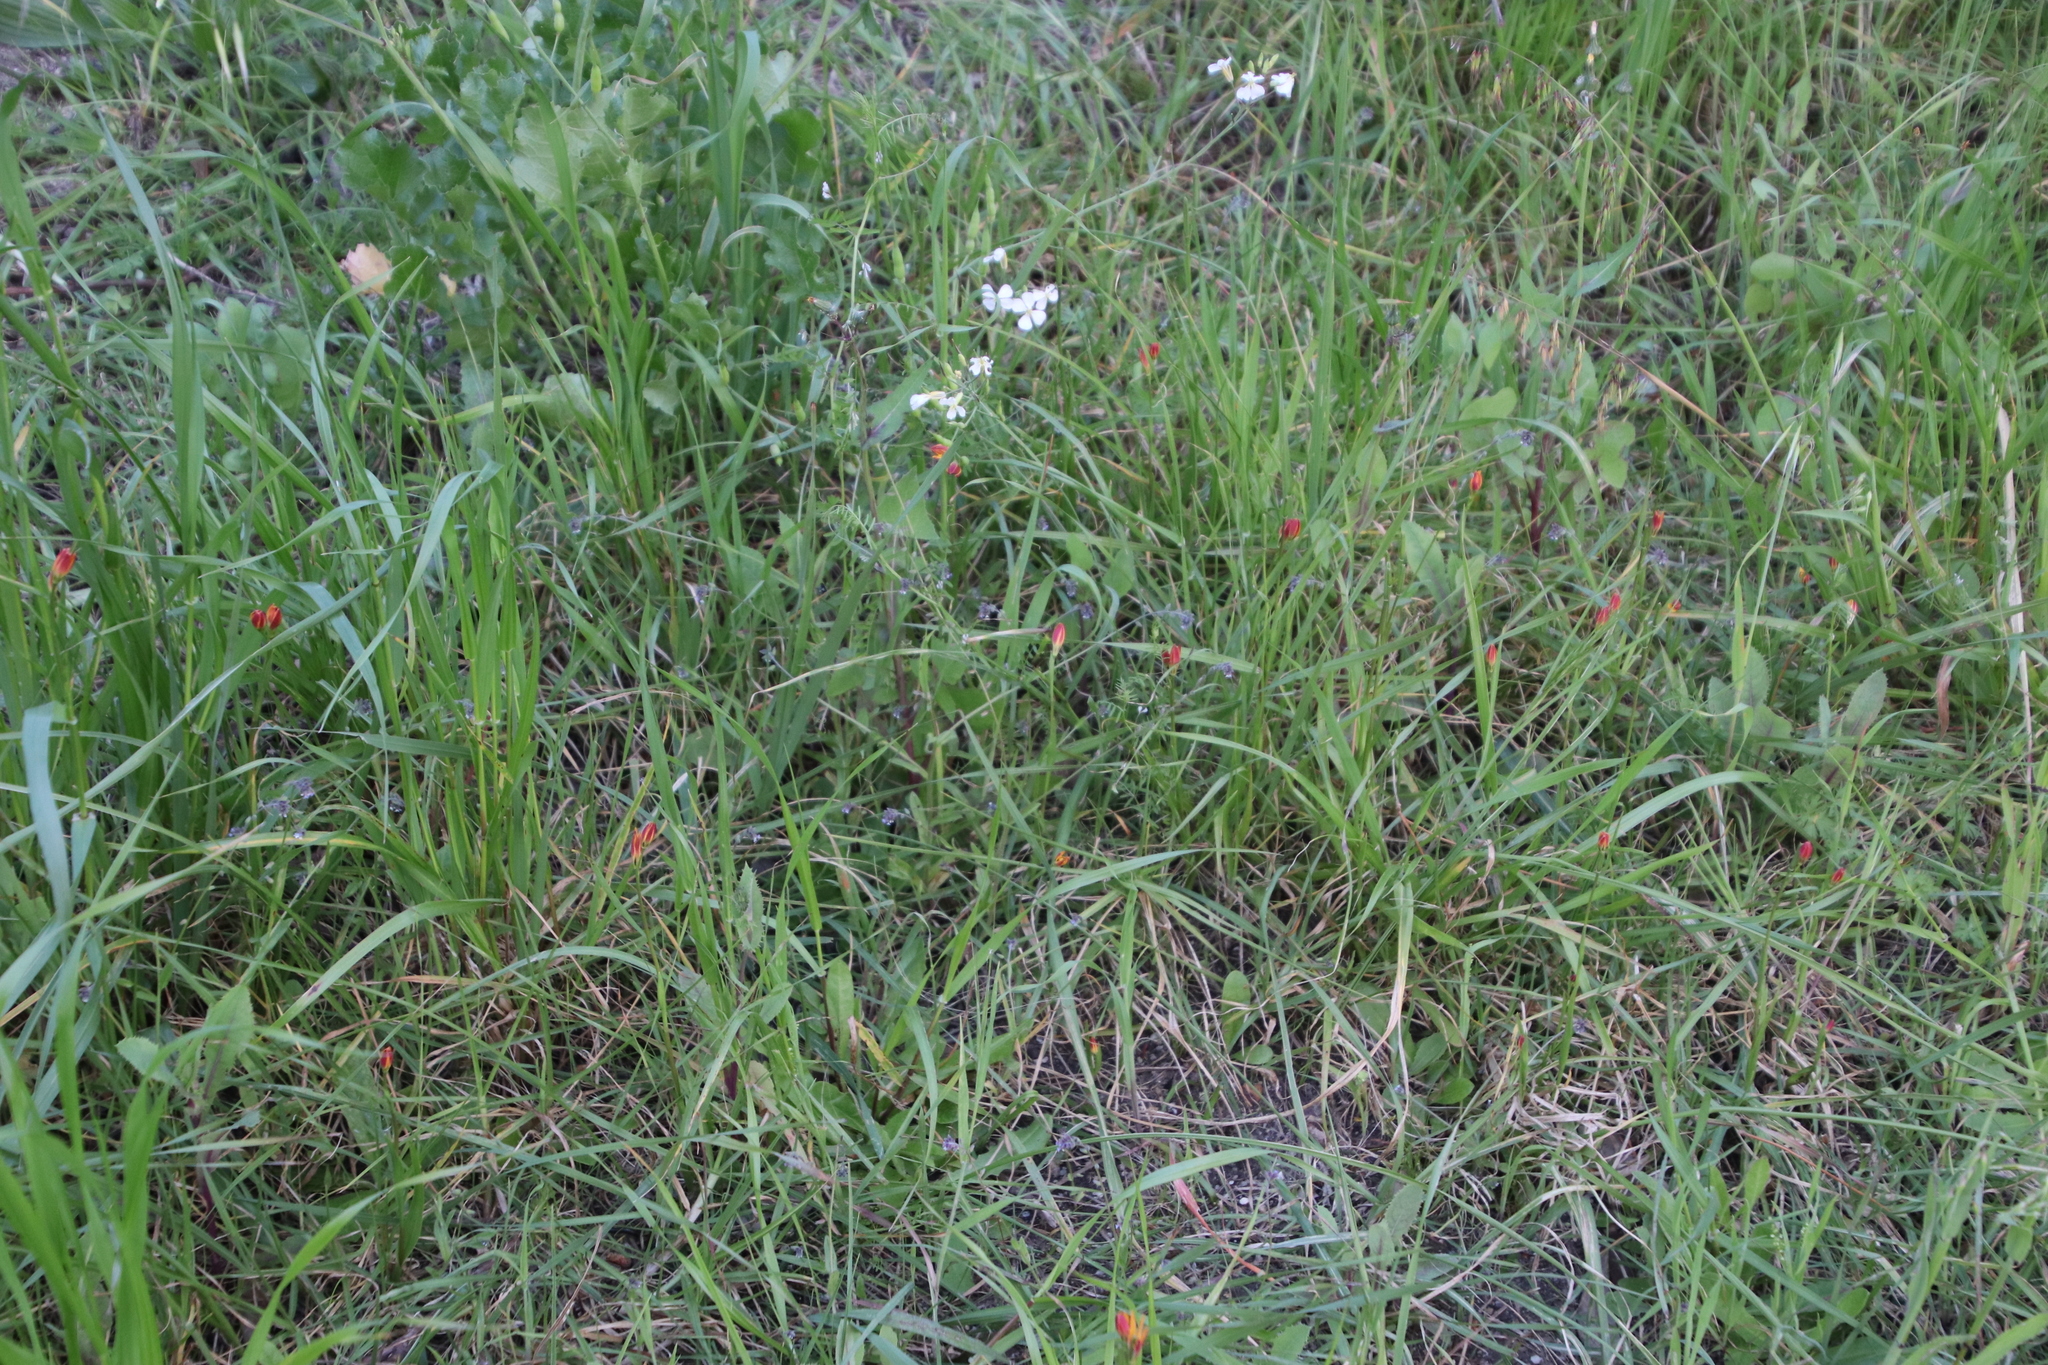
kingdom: Plantae
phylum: Tracheophyta
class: Liliopsida
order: Liliales
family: Colchicaceae
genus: Baeometra
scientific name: Baeometra uniflora
